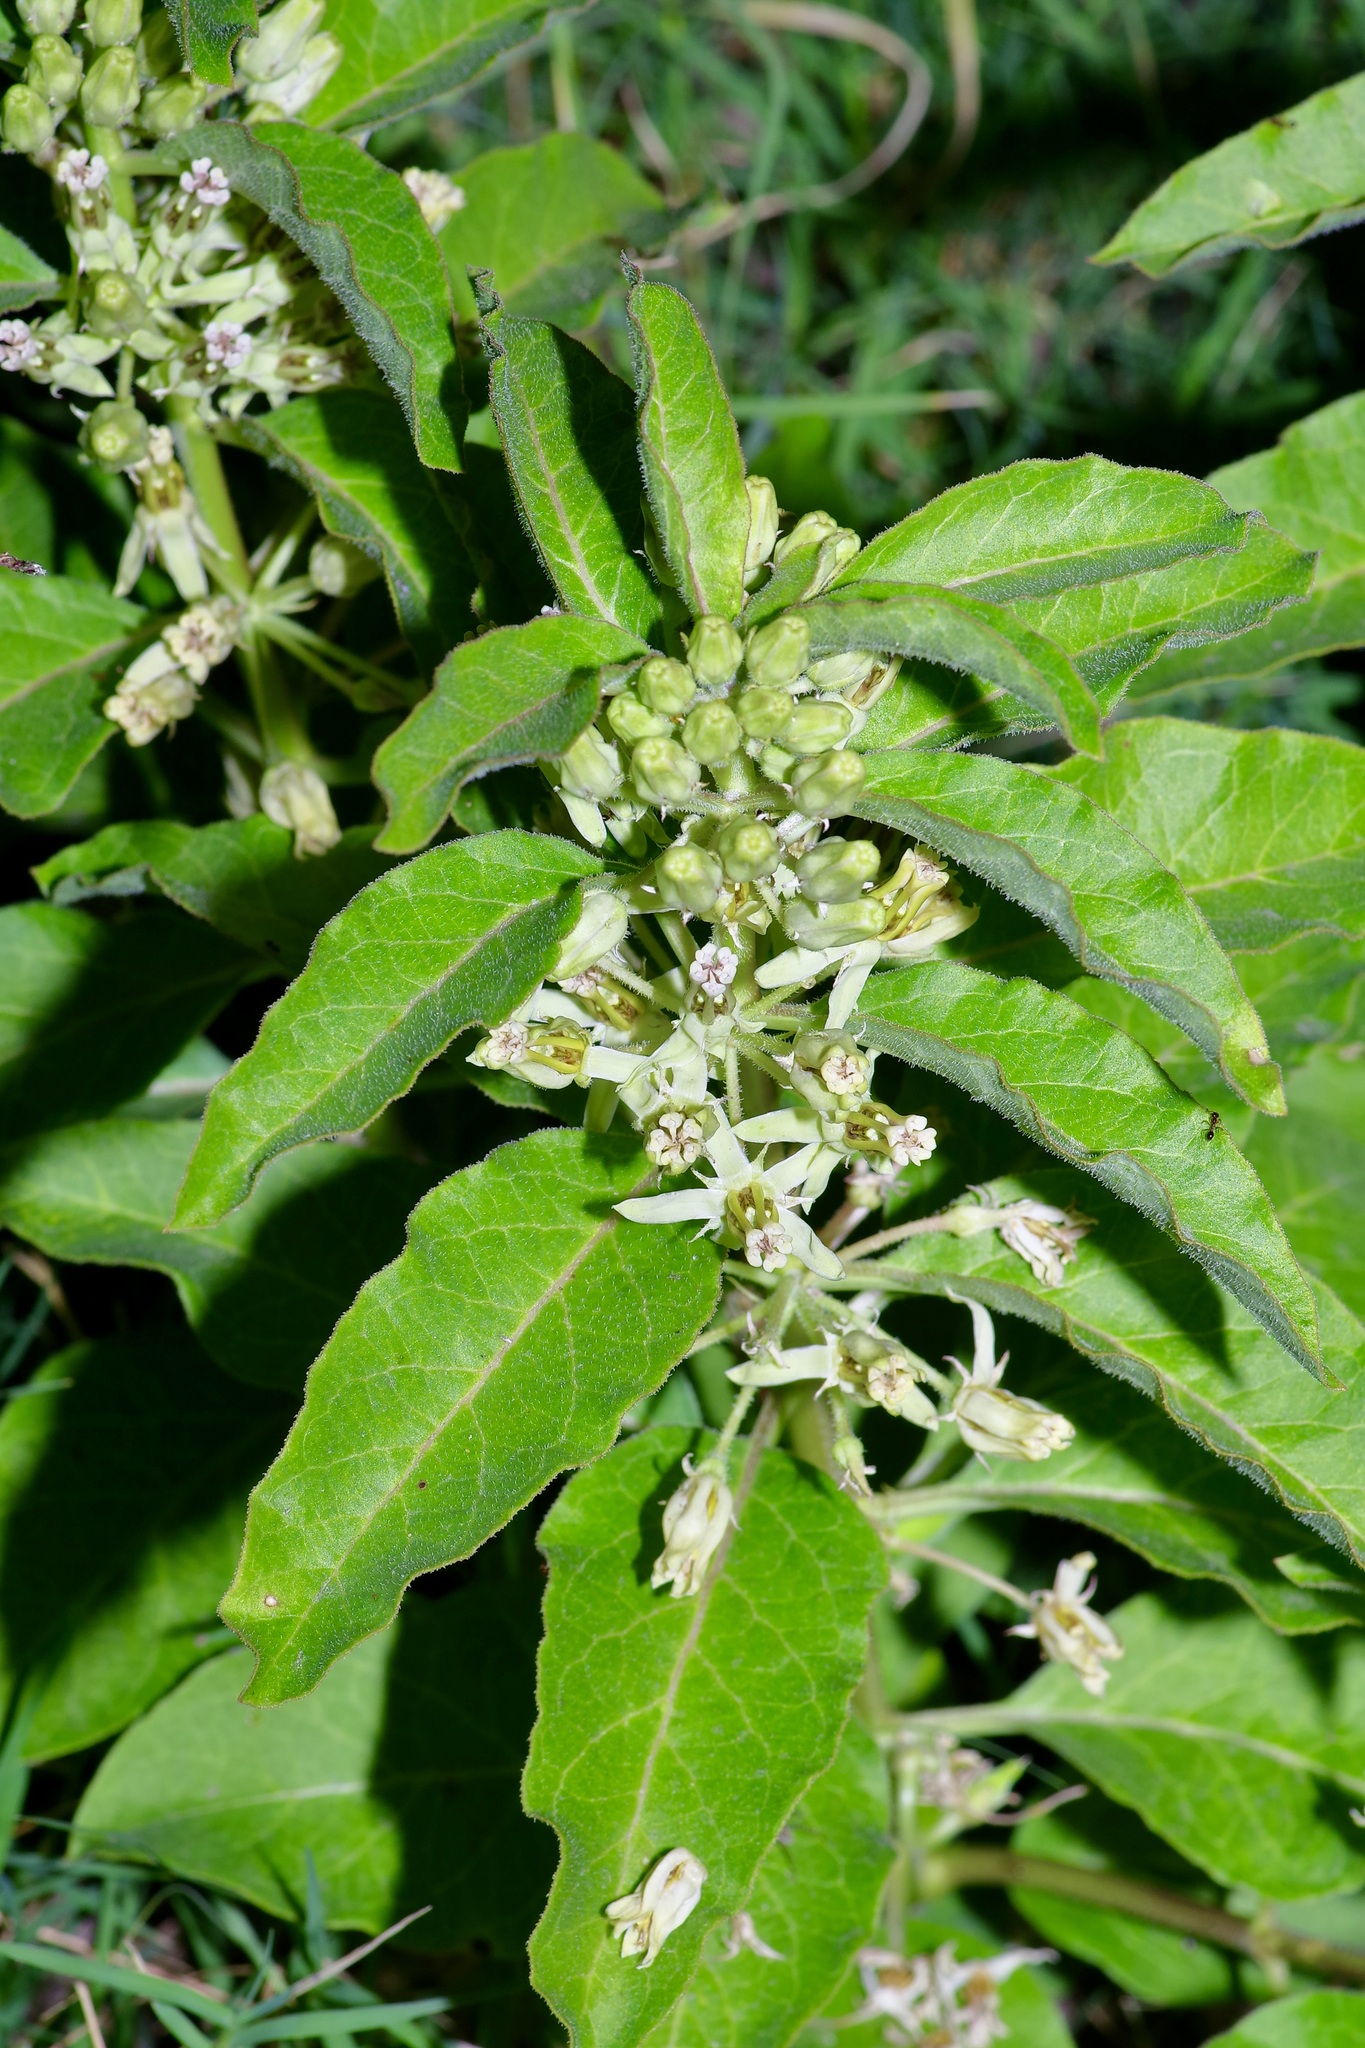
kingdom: Plantae
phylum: Tracheophyta
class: Magnoliopsida
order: Gentianales
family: Apocynaceae
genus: Asclepias
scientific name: Asclepias oenotheroides
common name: Zizotes milkweed
